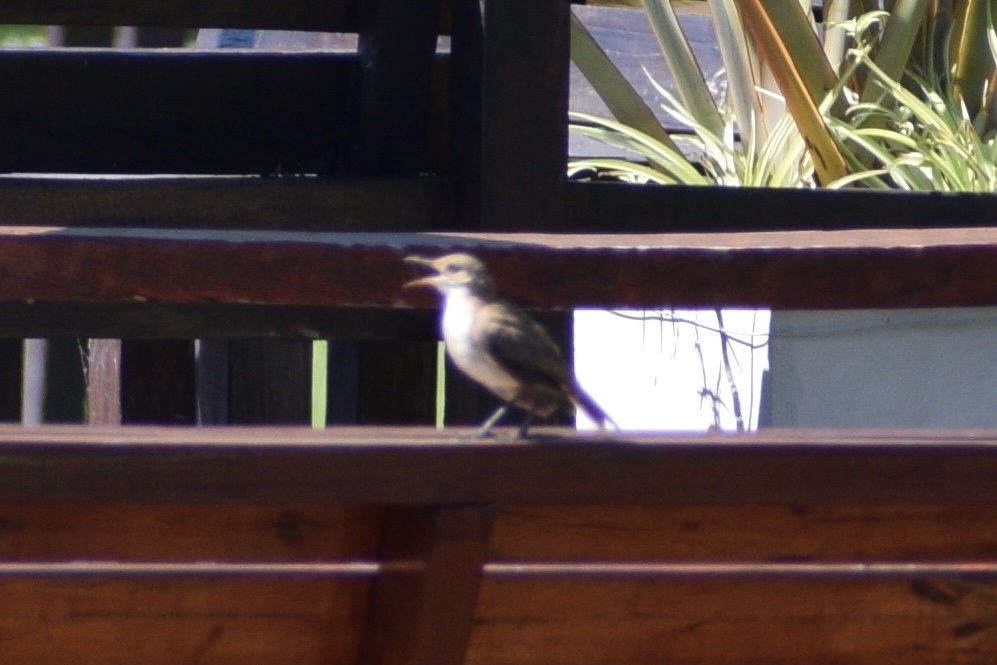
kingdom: Animalia
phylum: Chordata
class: Aves
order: Passeriformes
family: Furnariidae
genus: Furnarius
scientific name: Furnarius rufus
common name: Rufous hornero
